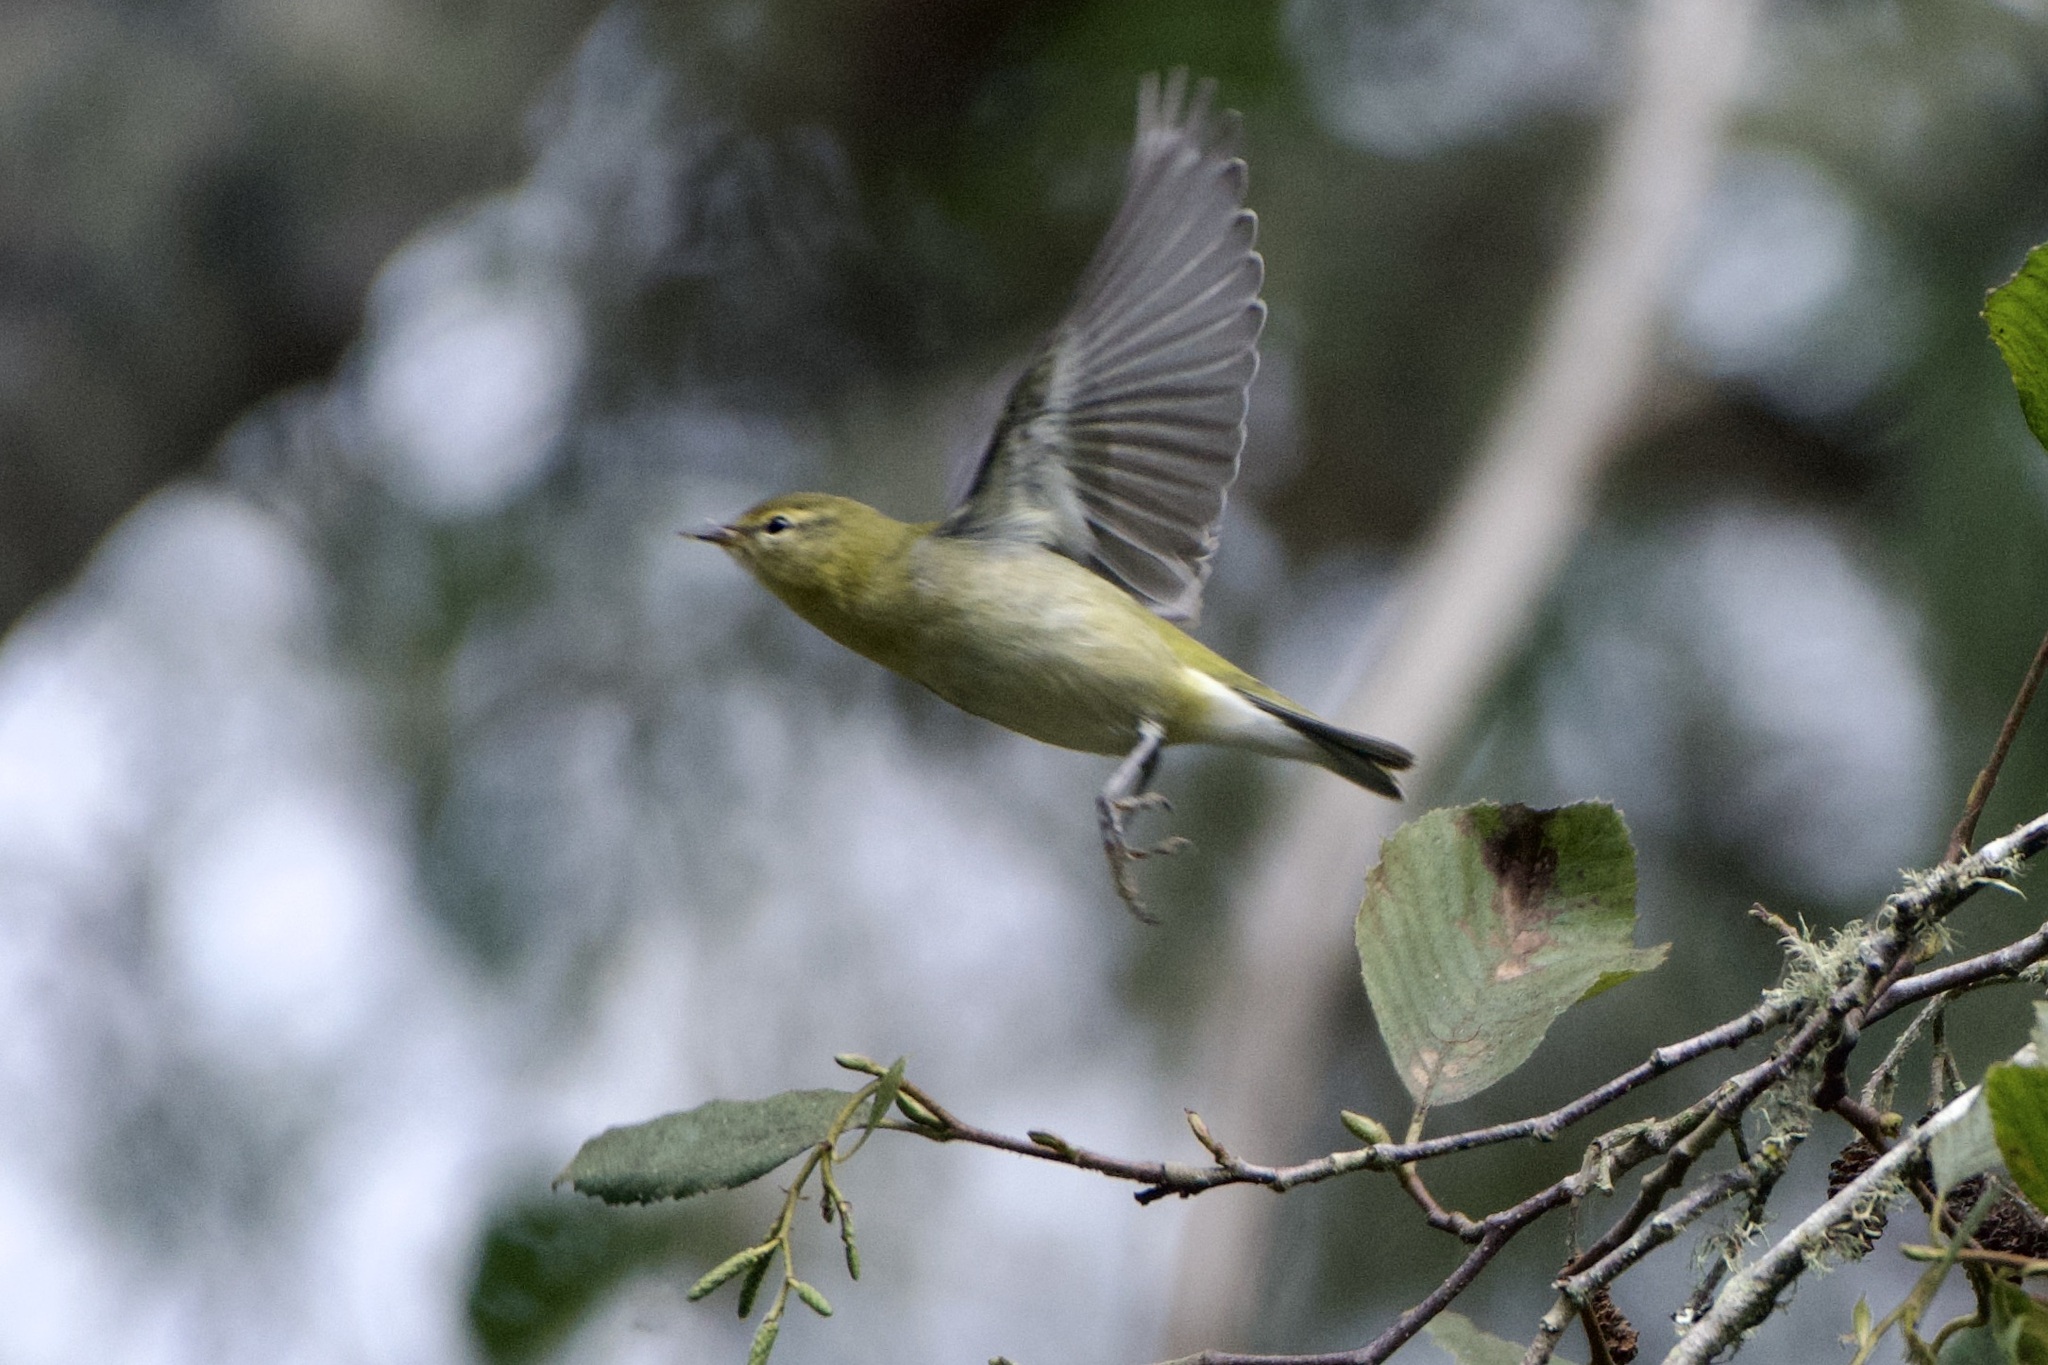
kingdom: Animalia
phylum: Chordata
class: Aves
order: Passeriformes
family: Parulidae
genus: Leiothlypis
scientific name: Leiothlypis peregrina
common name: Tennessee warbler
